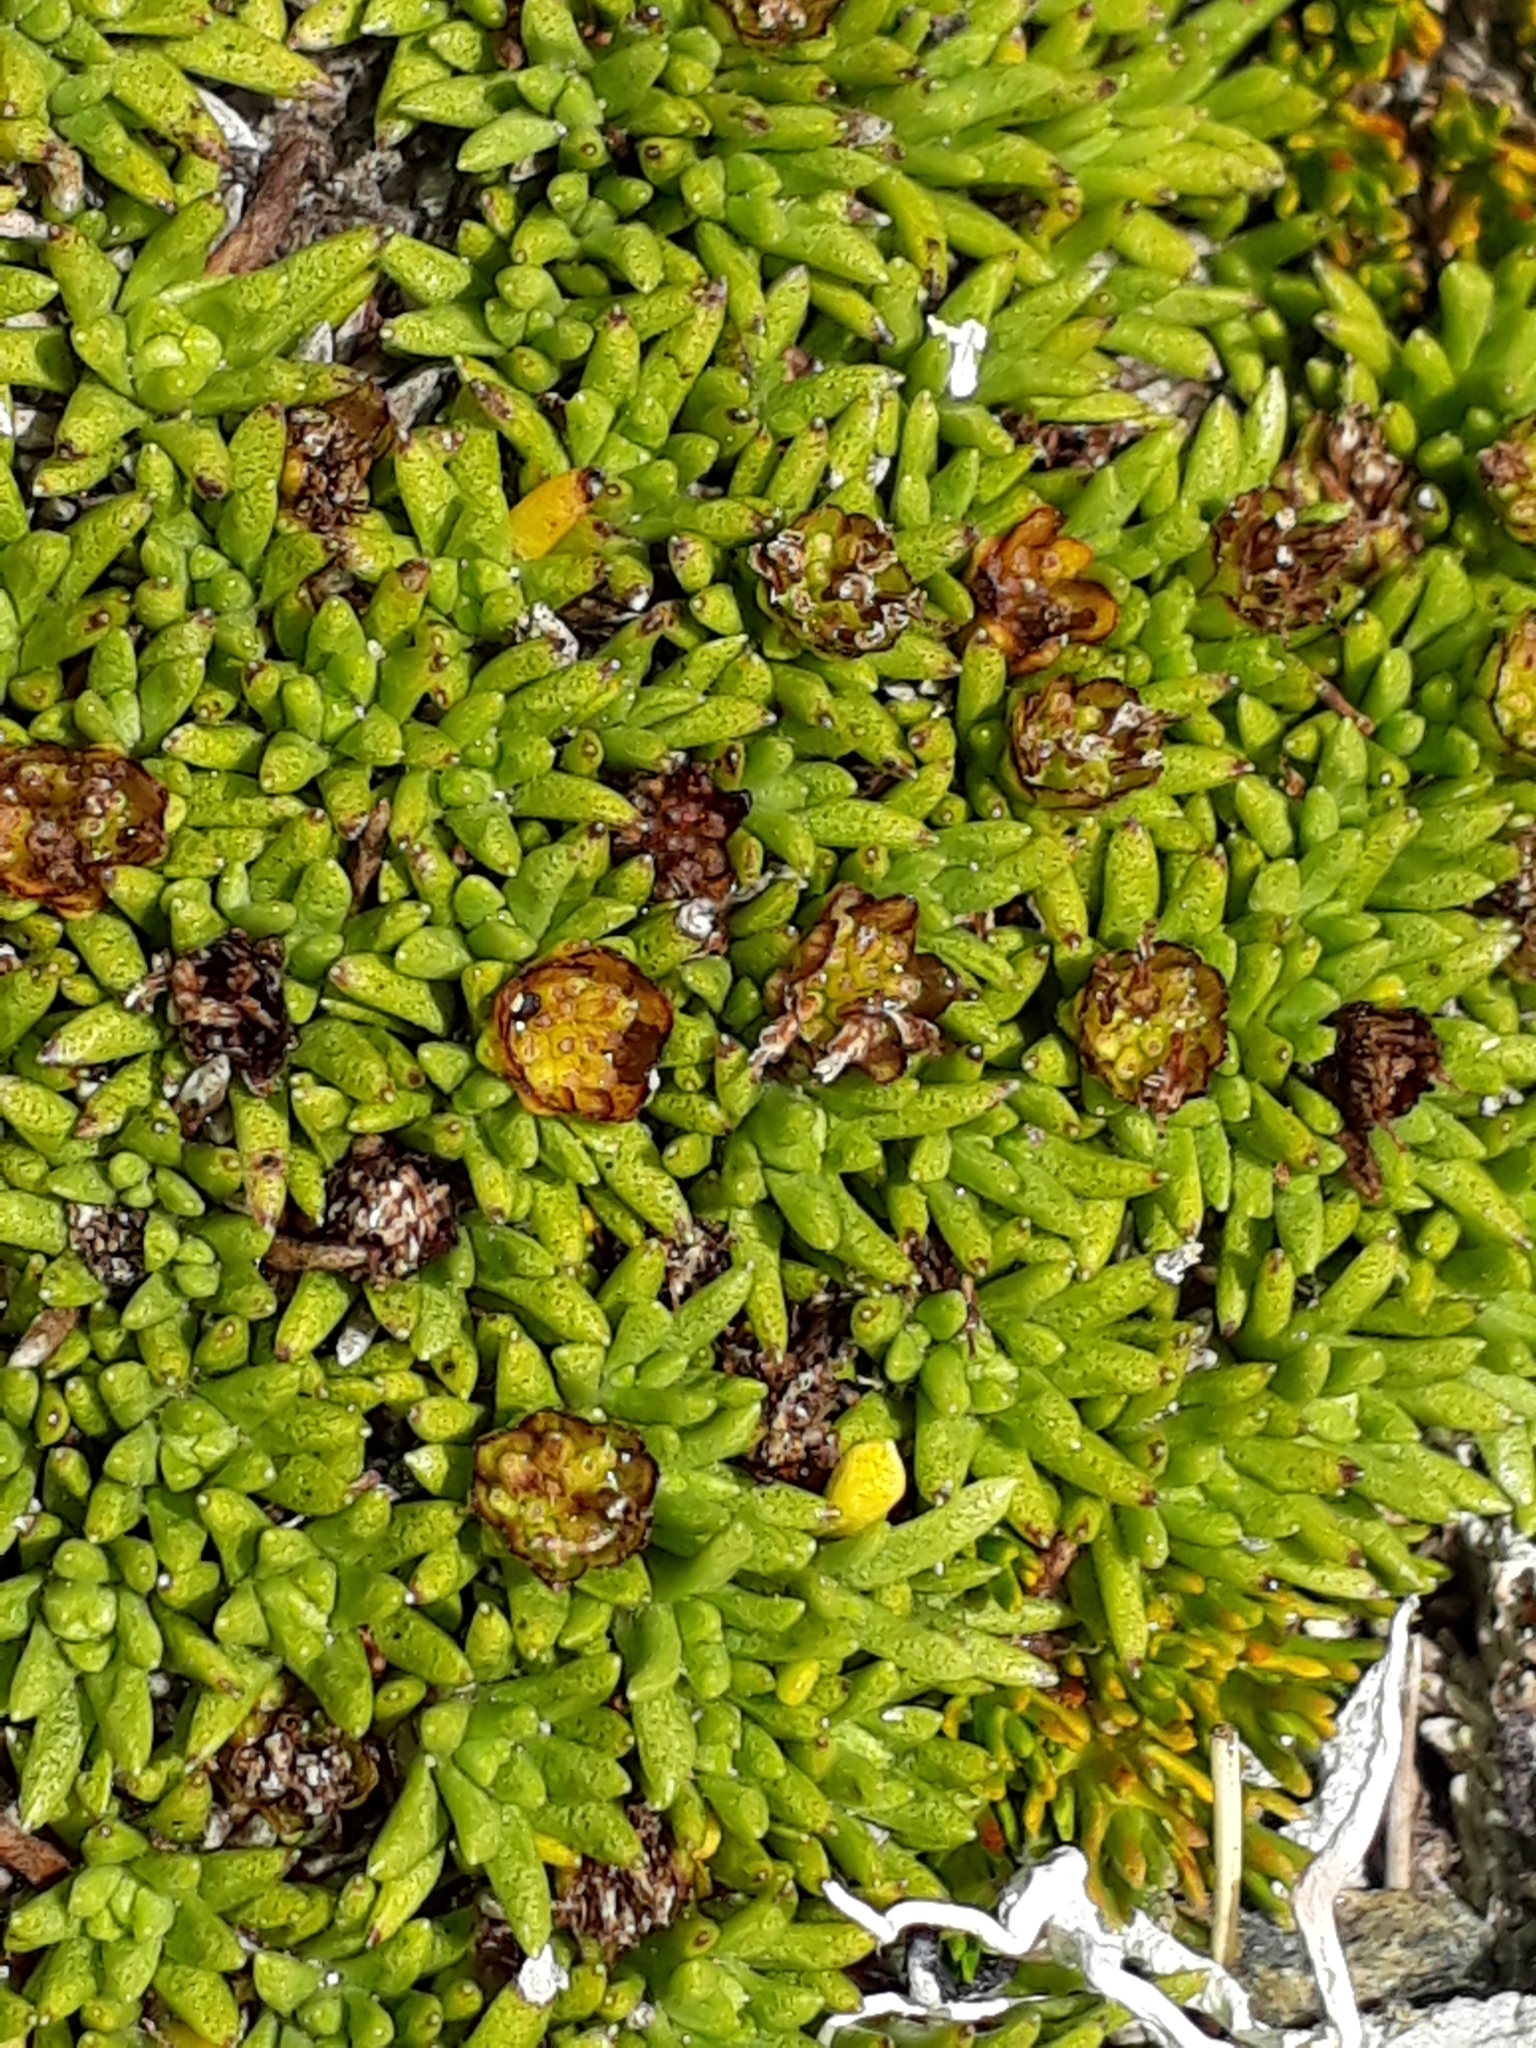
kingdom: Plantae
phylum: Tracheophyta
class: Magnoliopsida
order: Asterales
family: Asteraceae
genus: Abrotanella
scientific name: Abrotanella inconspicua
